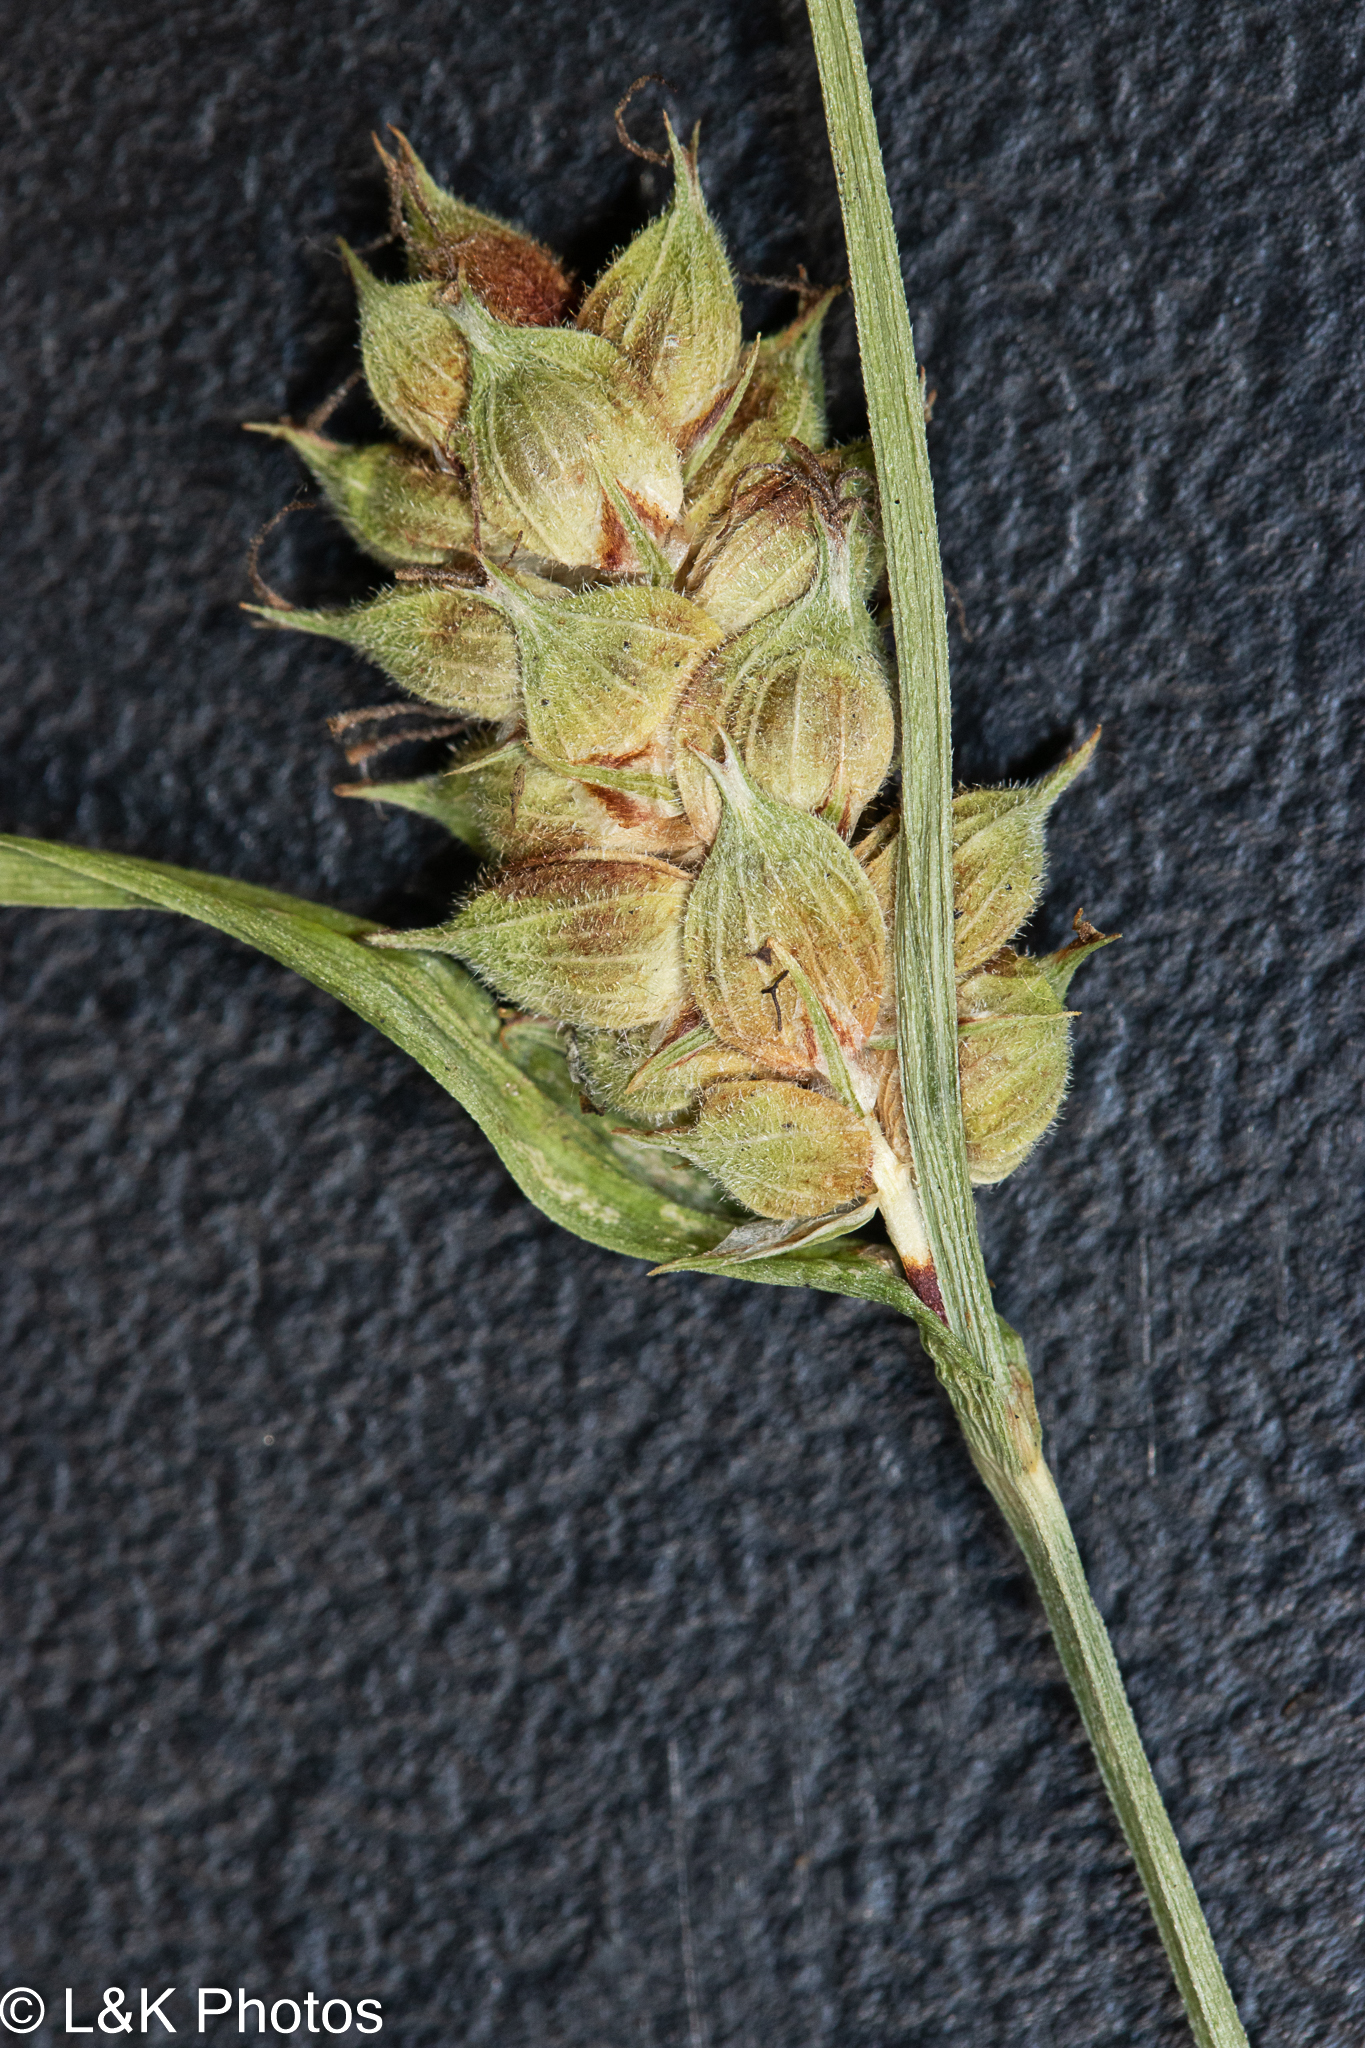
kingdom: Plantae
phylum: Tracheophyta
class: Liliopsida
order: Poales
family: Cyperaceae
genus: Carex
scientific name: Carex houghtoniana
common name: Houghton's sedge
